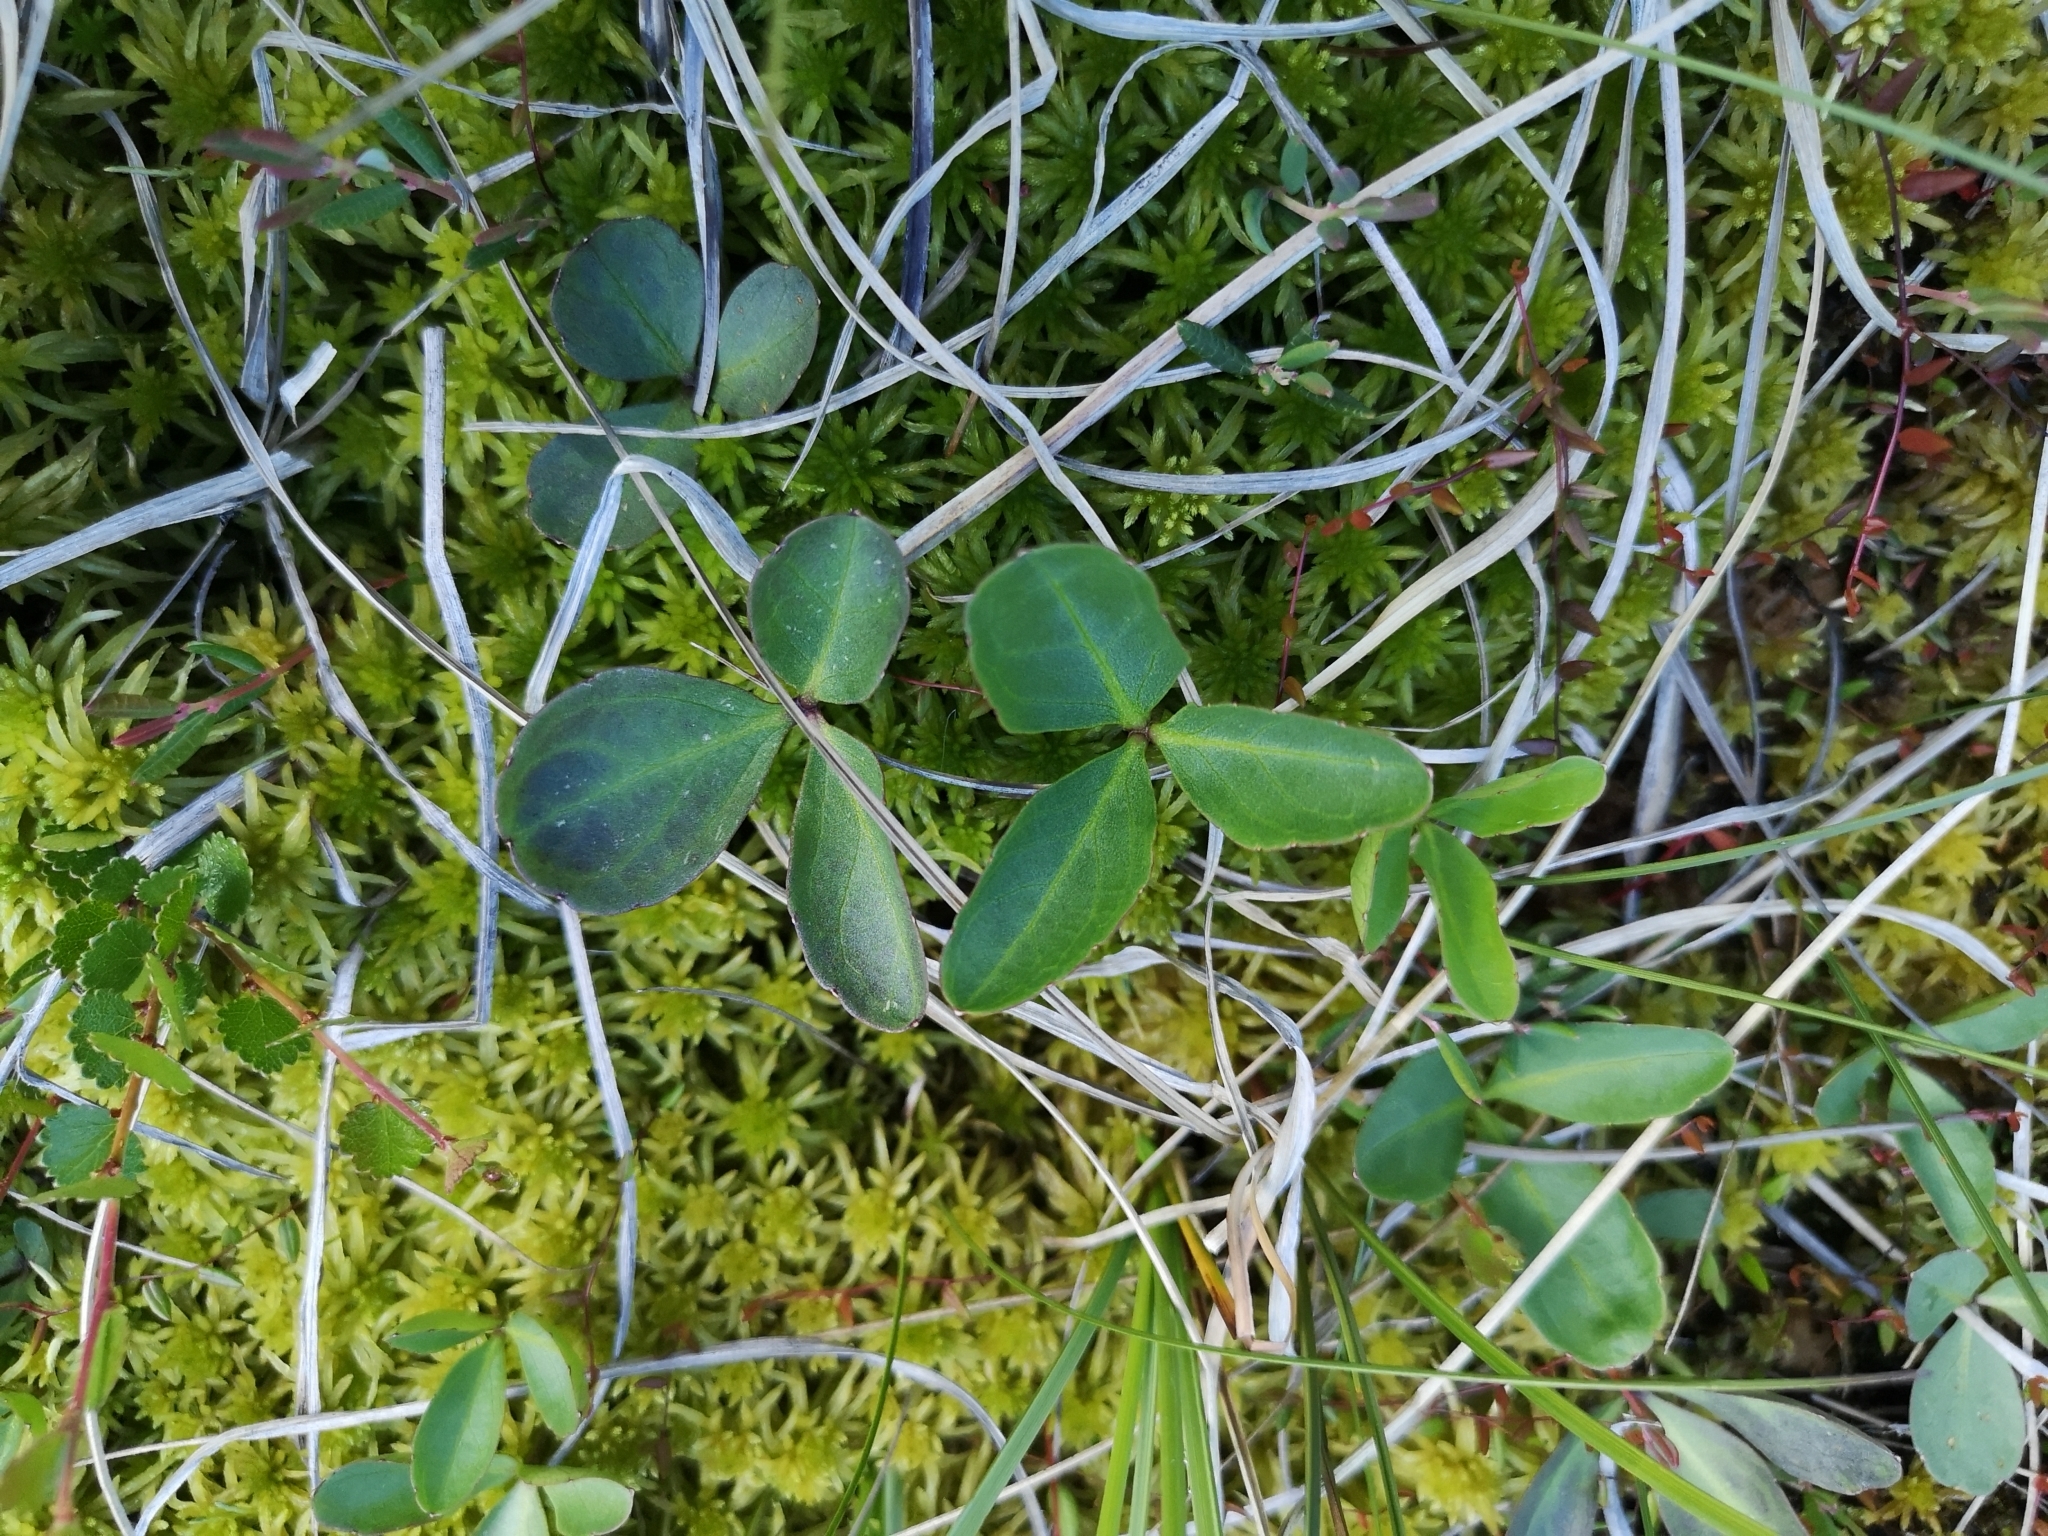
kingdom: Plantae
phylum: Tracheophyta
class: Magnoliopsida
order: Asterales
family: Menyanthaceae
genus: Menyanthes
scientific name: Menyanthes trifoliata
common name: Bogbean
